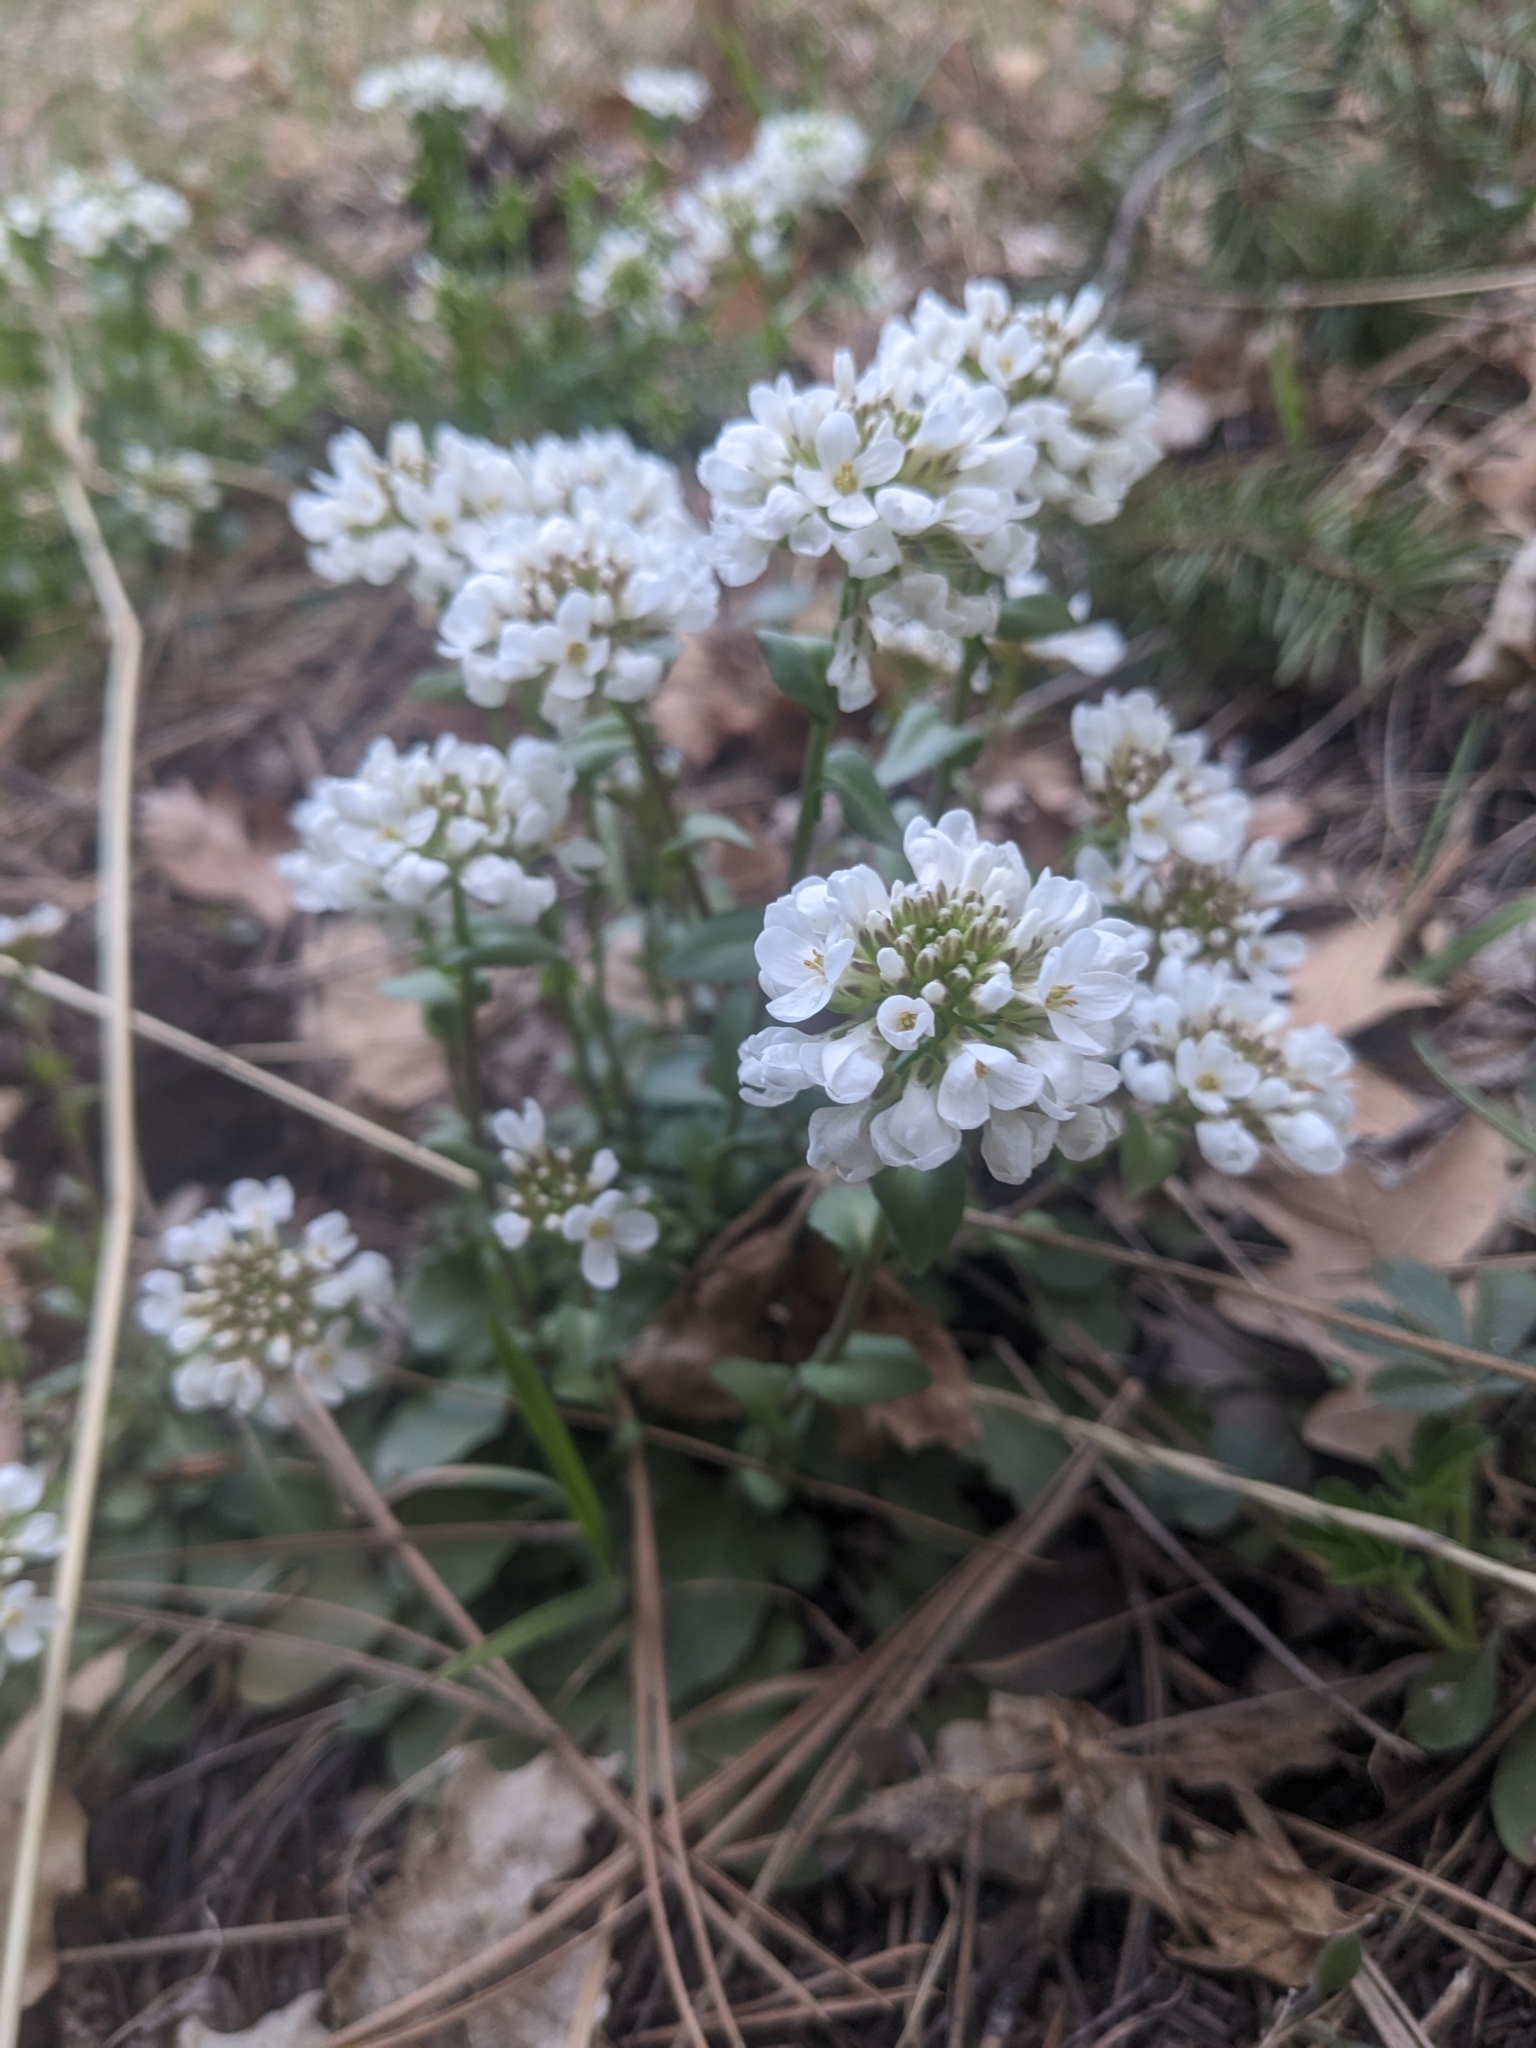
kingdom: Plantae
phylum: Tracheophyta
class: Magnoliopsida
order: Brassicales
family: Brassicaceae
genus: Noccaea
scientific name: Noccaea fendleri
